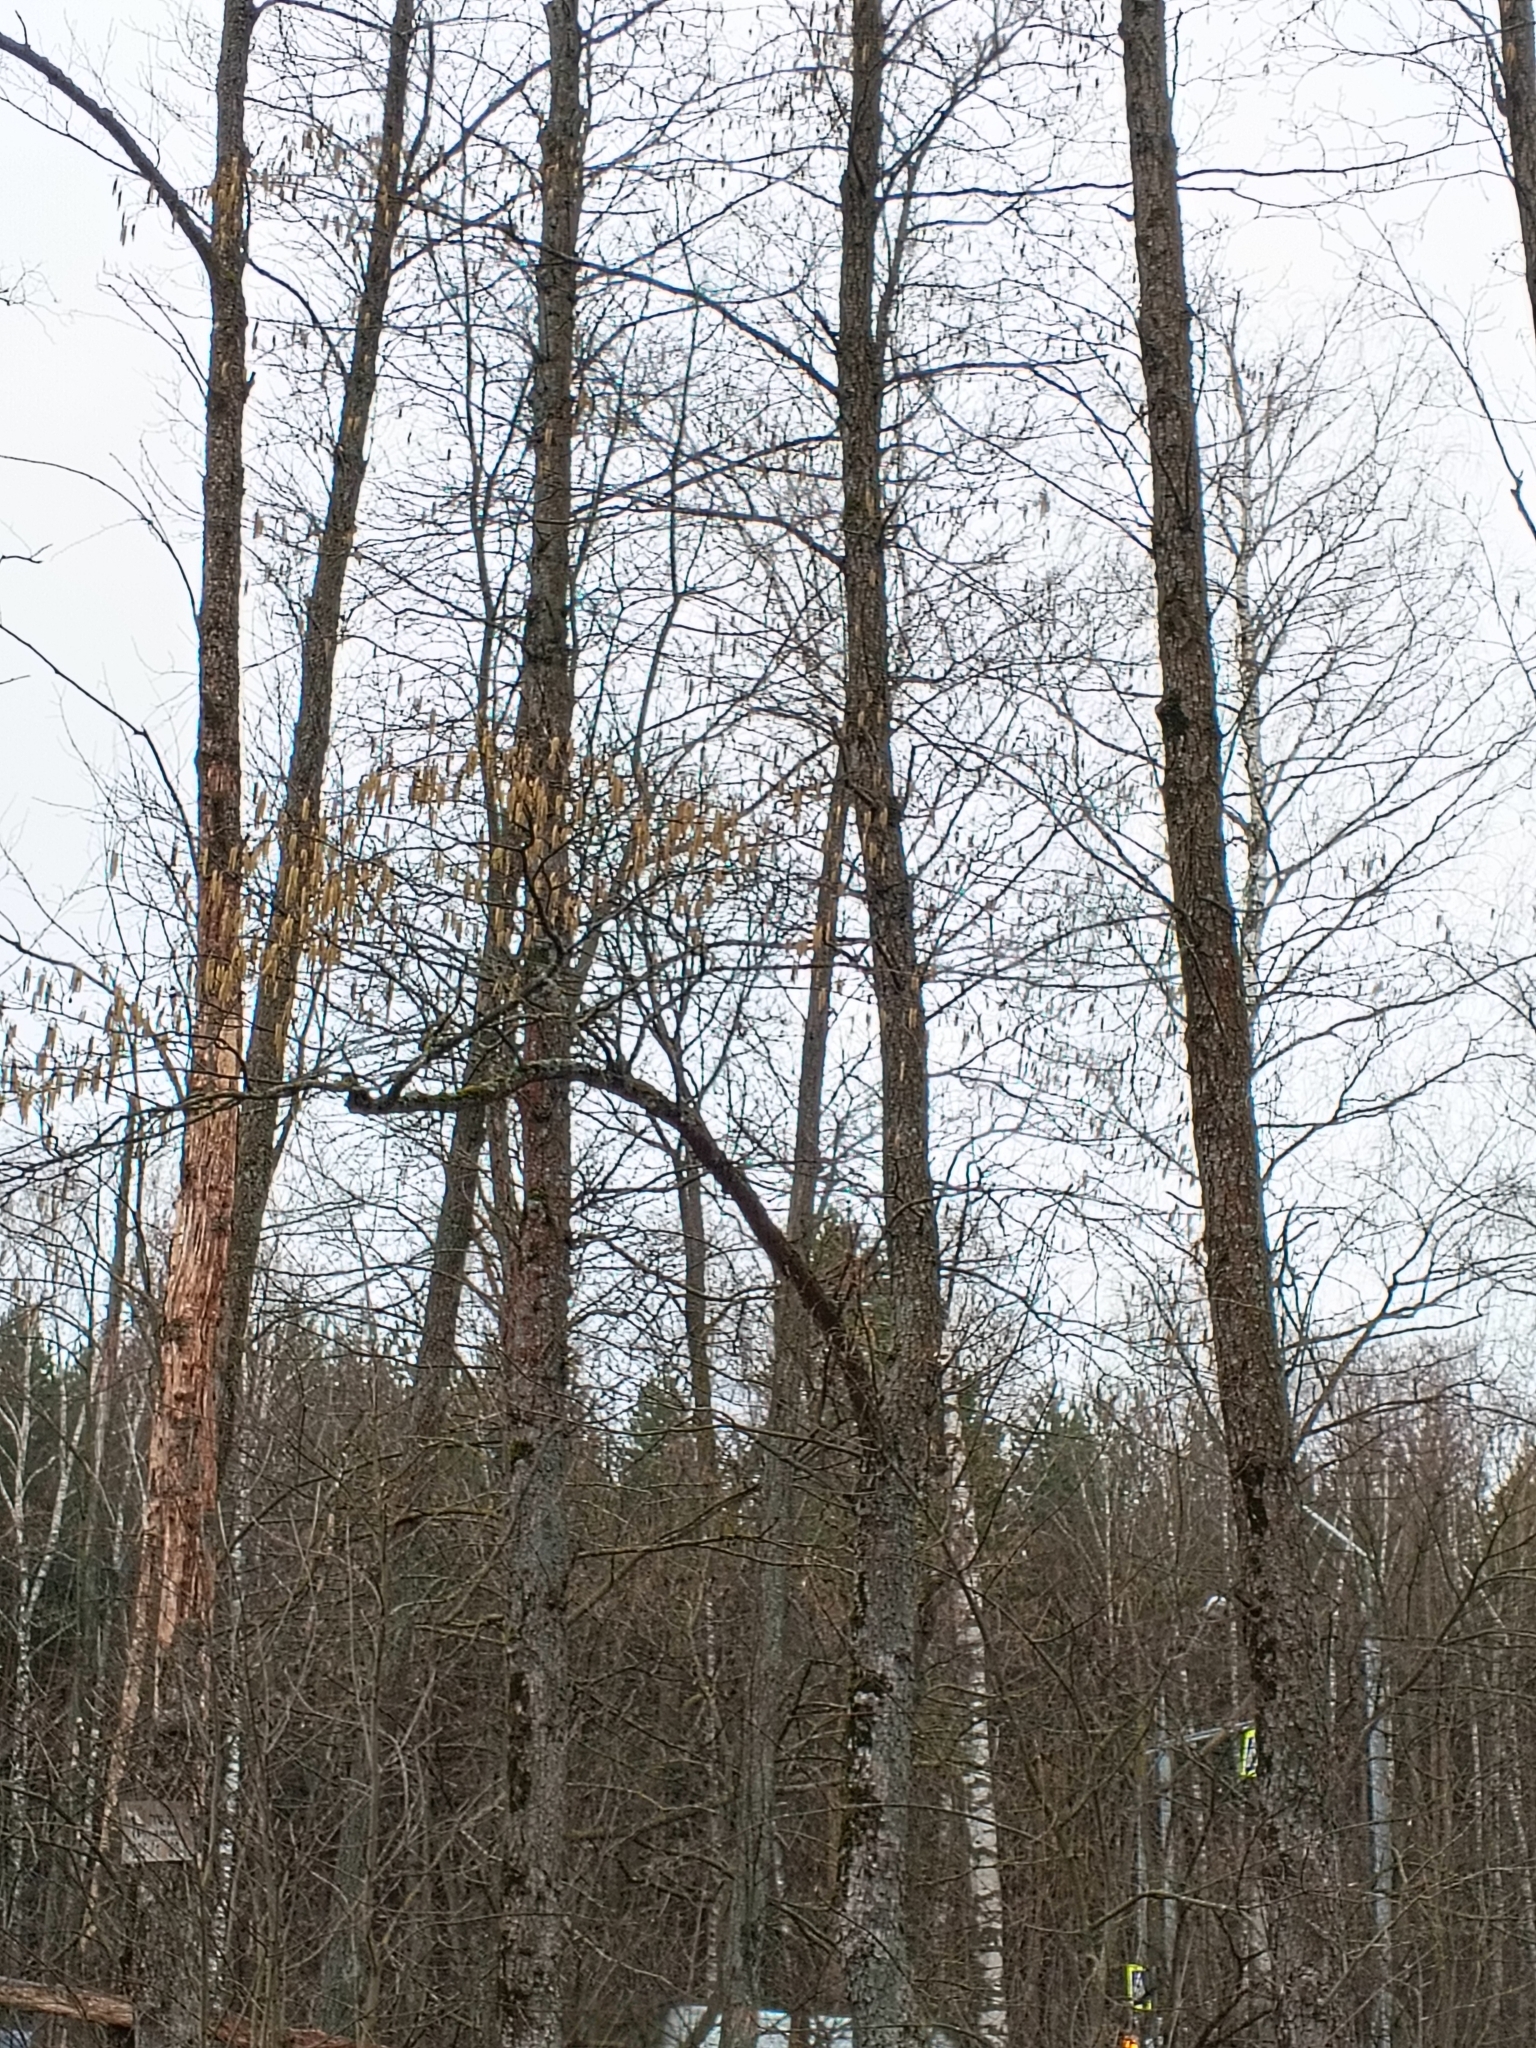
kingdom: Plantae
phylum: Tracheophyta
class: Magnoliopsida
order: Fagales
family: Betulaceae
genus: Corylus
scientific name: Corylus avellana
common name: European hazel
